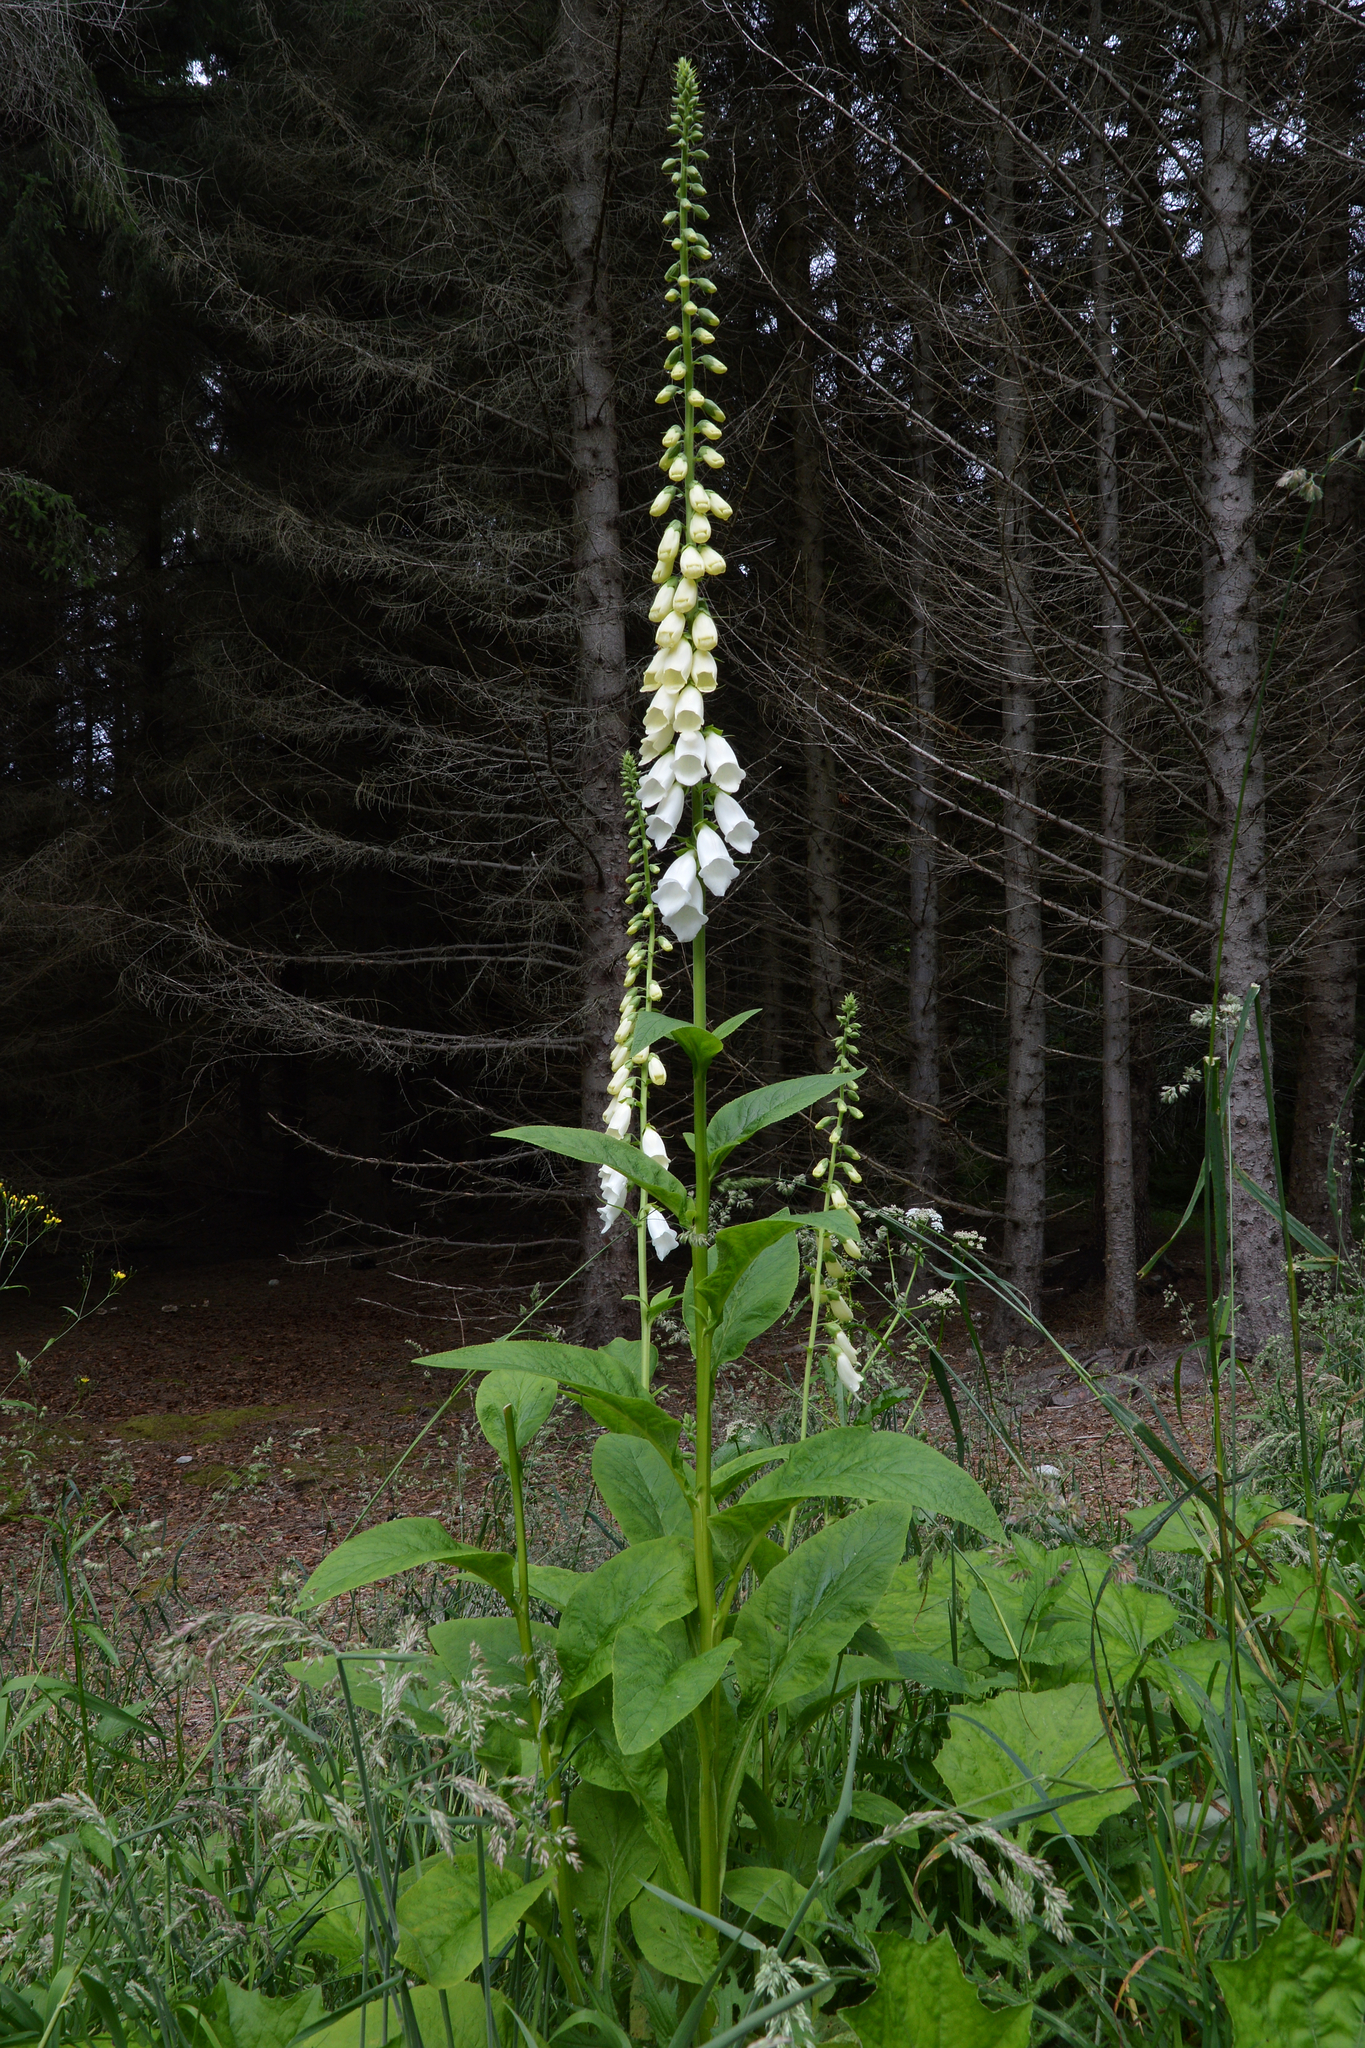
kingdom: Plantae
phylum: Tracheophyta
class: Magnoliopsida
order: Lamiales
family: Plantaginaceae
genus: Digitalis
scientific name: Digitalis purpurea
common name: Foxglove
